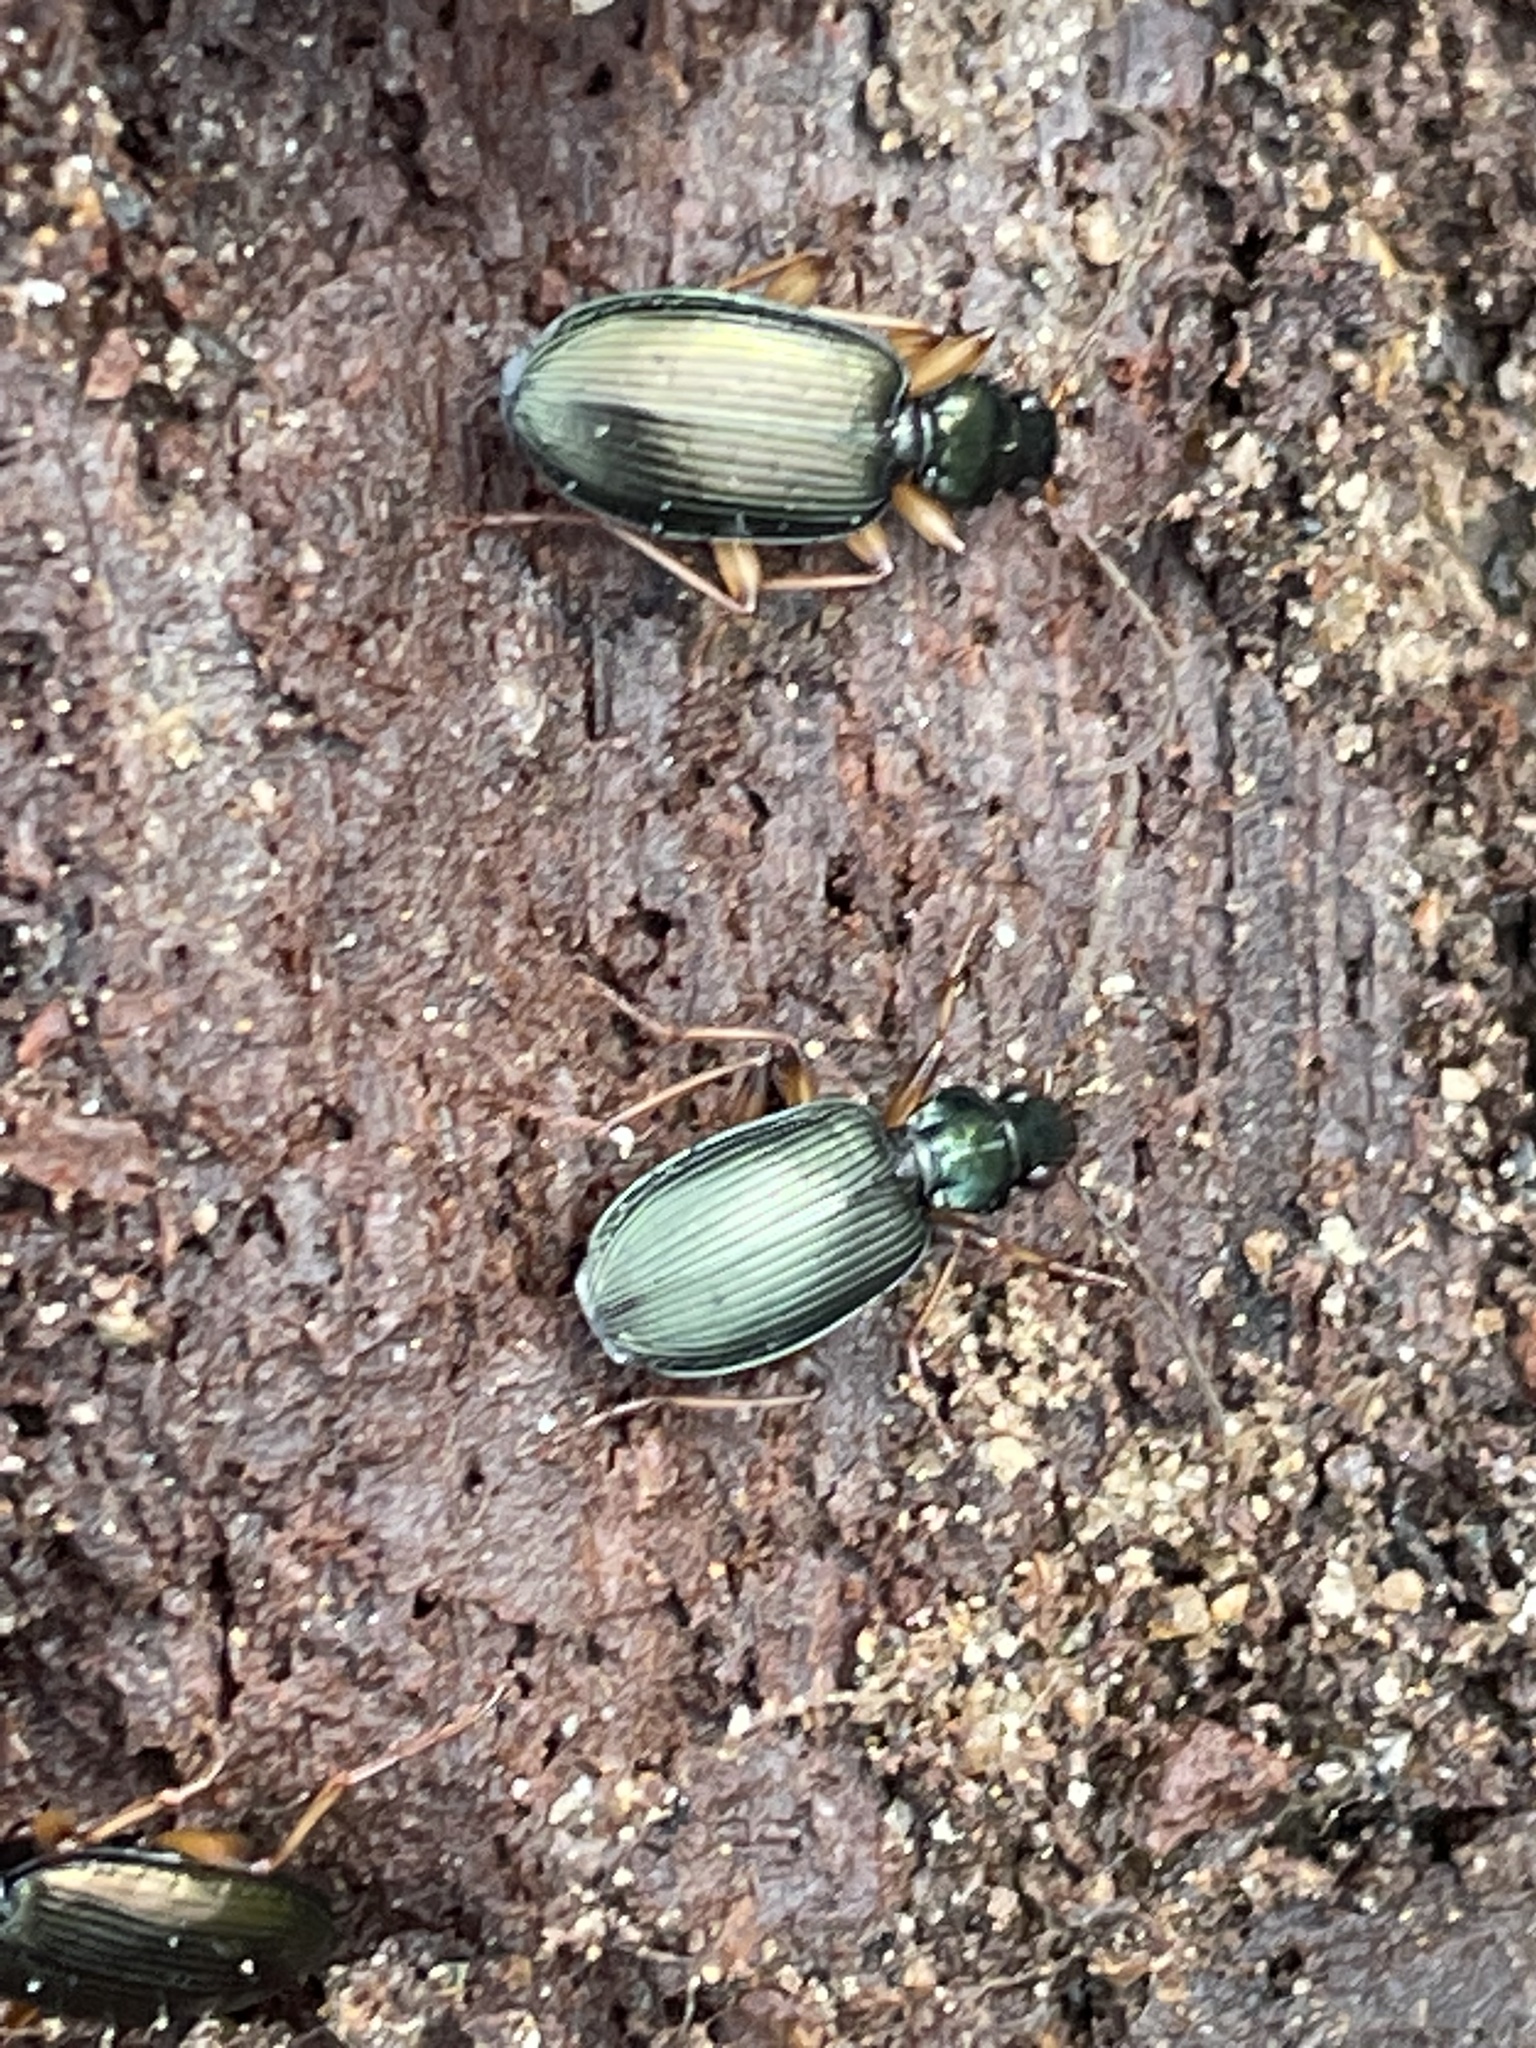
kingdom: Animalia
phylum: Arthropoda
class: Insecta
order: Coleoptera
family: Carabidae
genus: Agonum
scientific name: Agonum extensicolle
